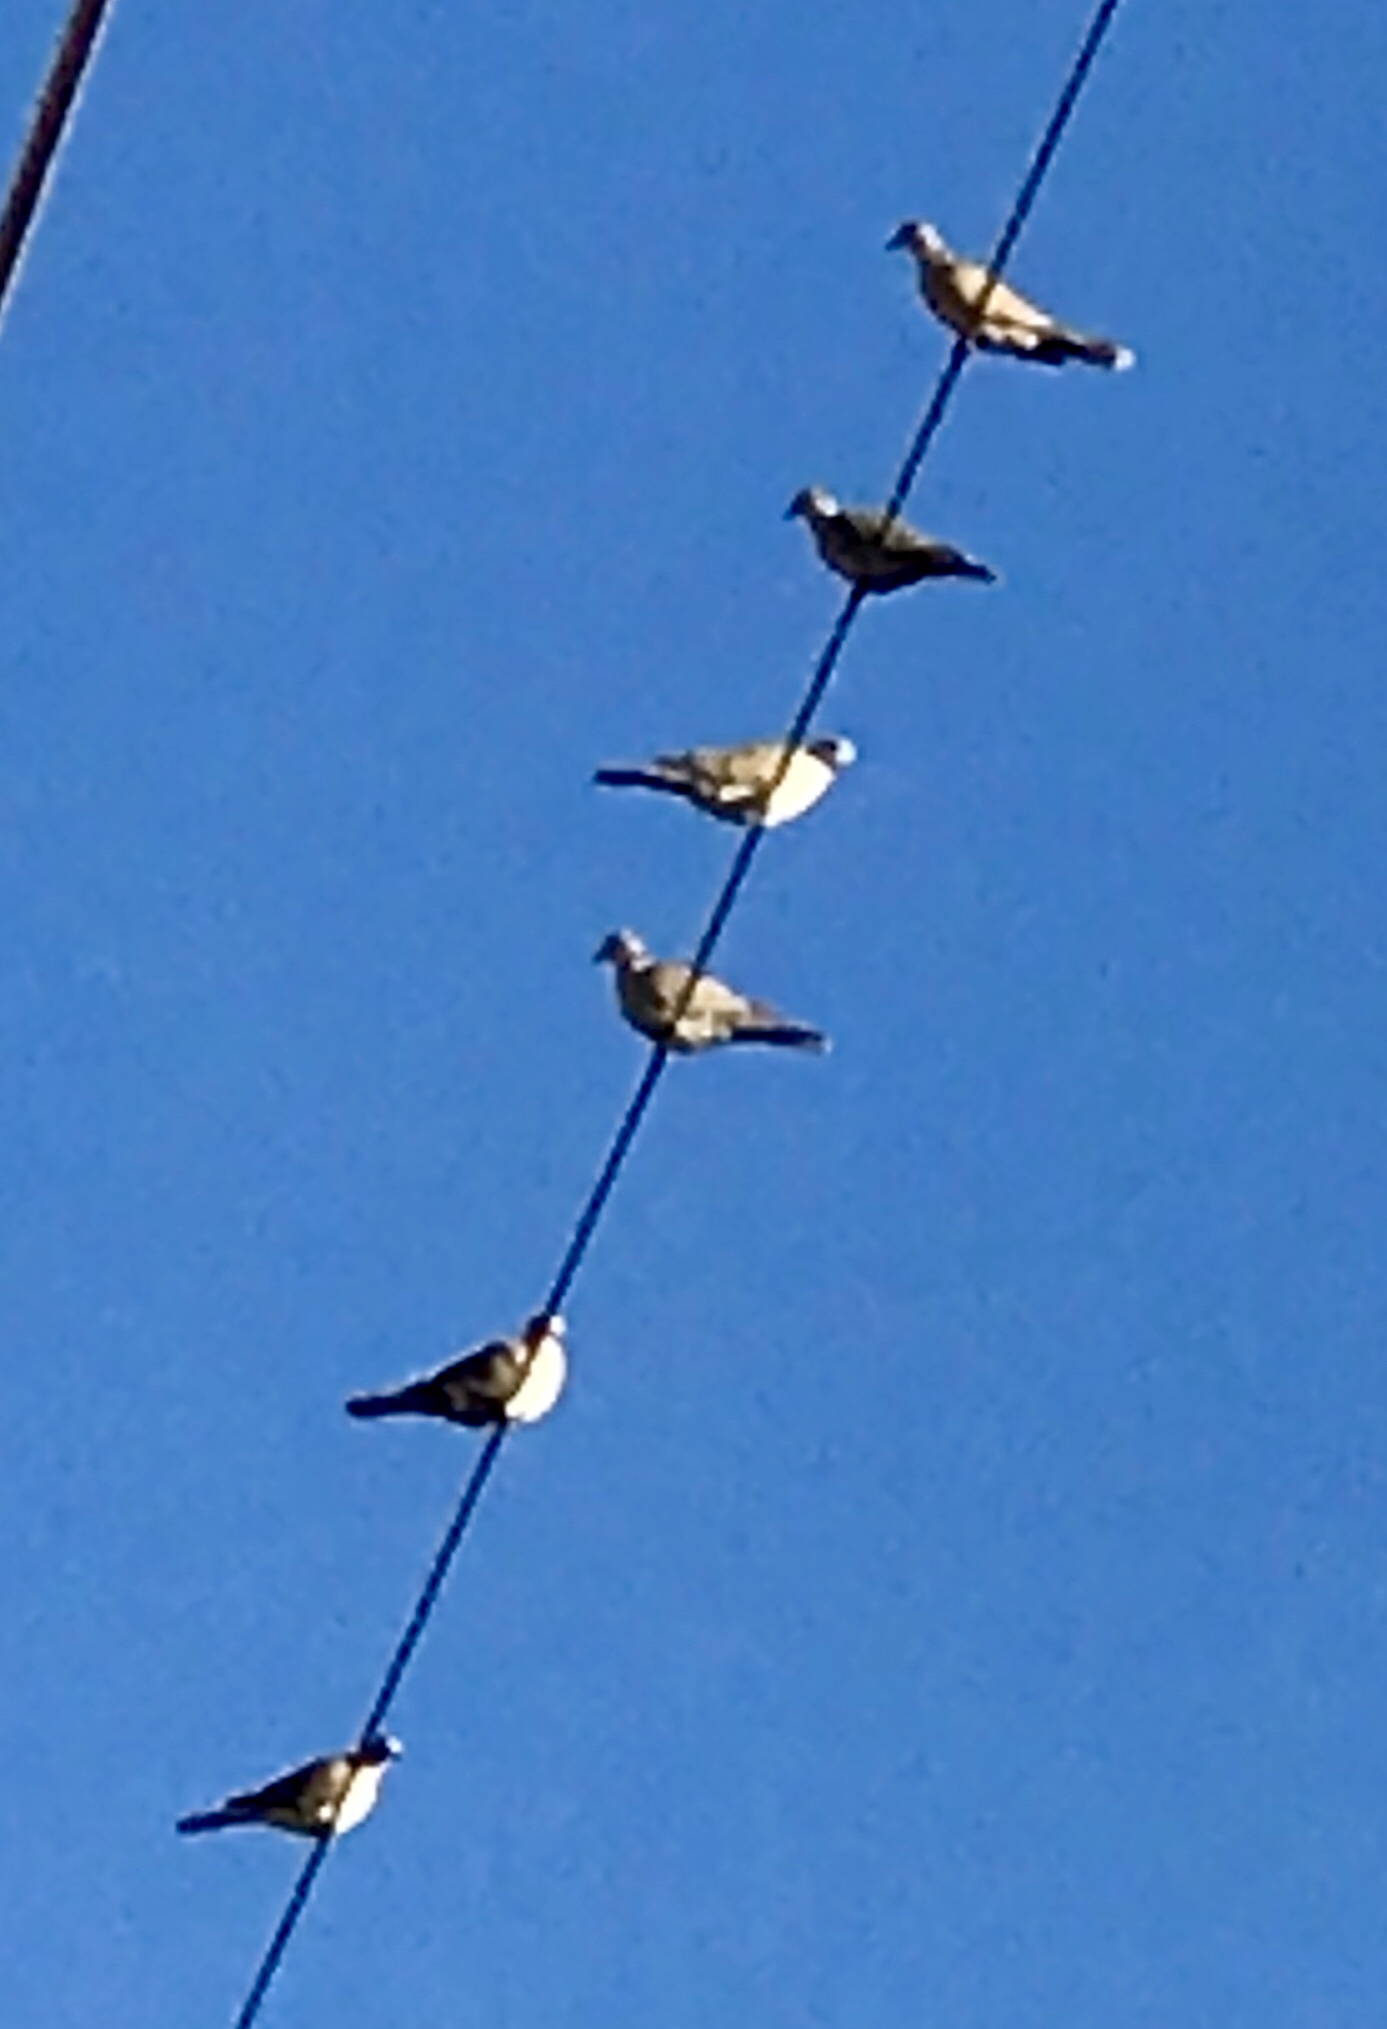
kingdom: Animalia
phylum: Chordata
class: Aves
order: Columbiformes
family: Columbidae
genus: Streptopelia
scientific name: Streptopelia decaocto
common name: Eurasian collared dove
